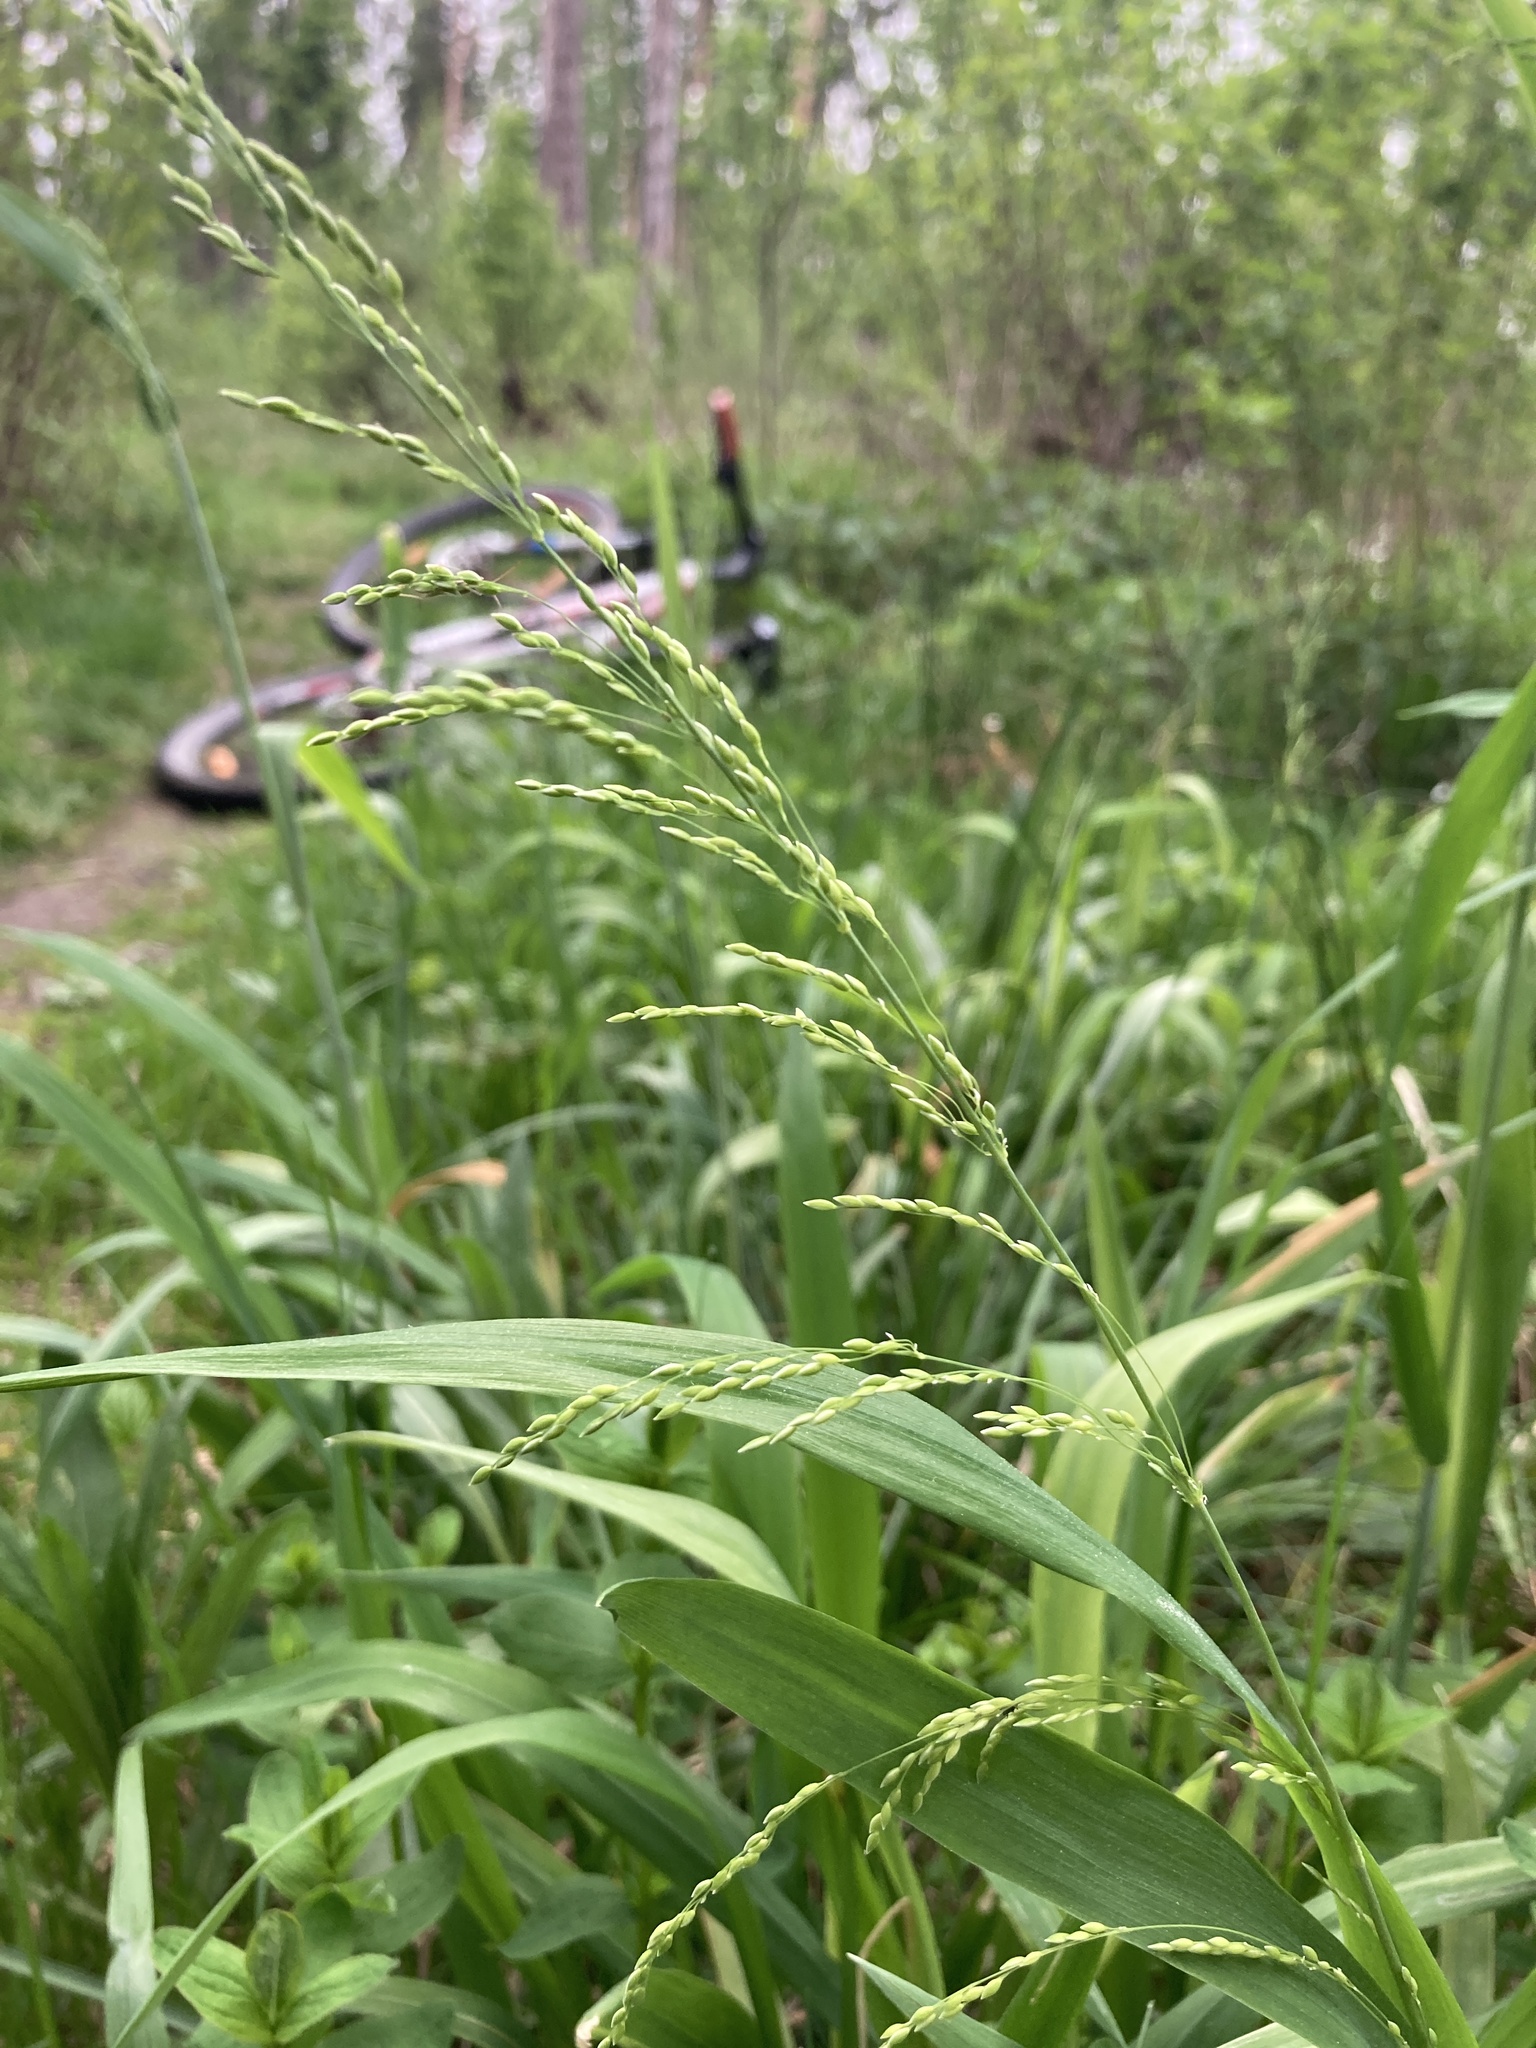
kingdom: Plantae
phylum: Tracheophyta
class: Liliopsida
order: Poales
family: Poaceae
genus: Milium
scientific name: Milium effusum
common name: Wood millet
